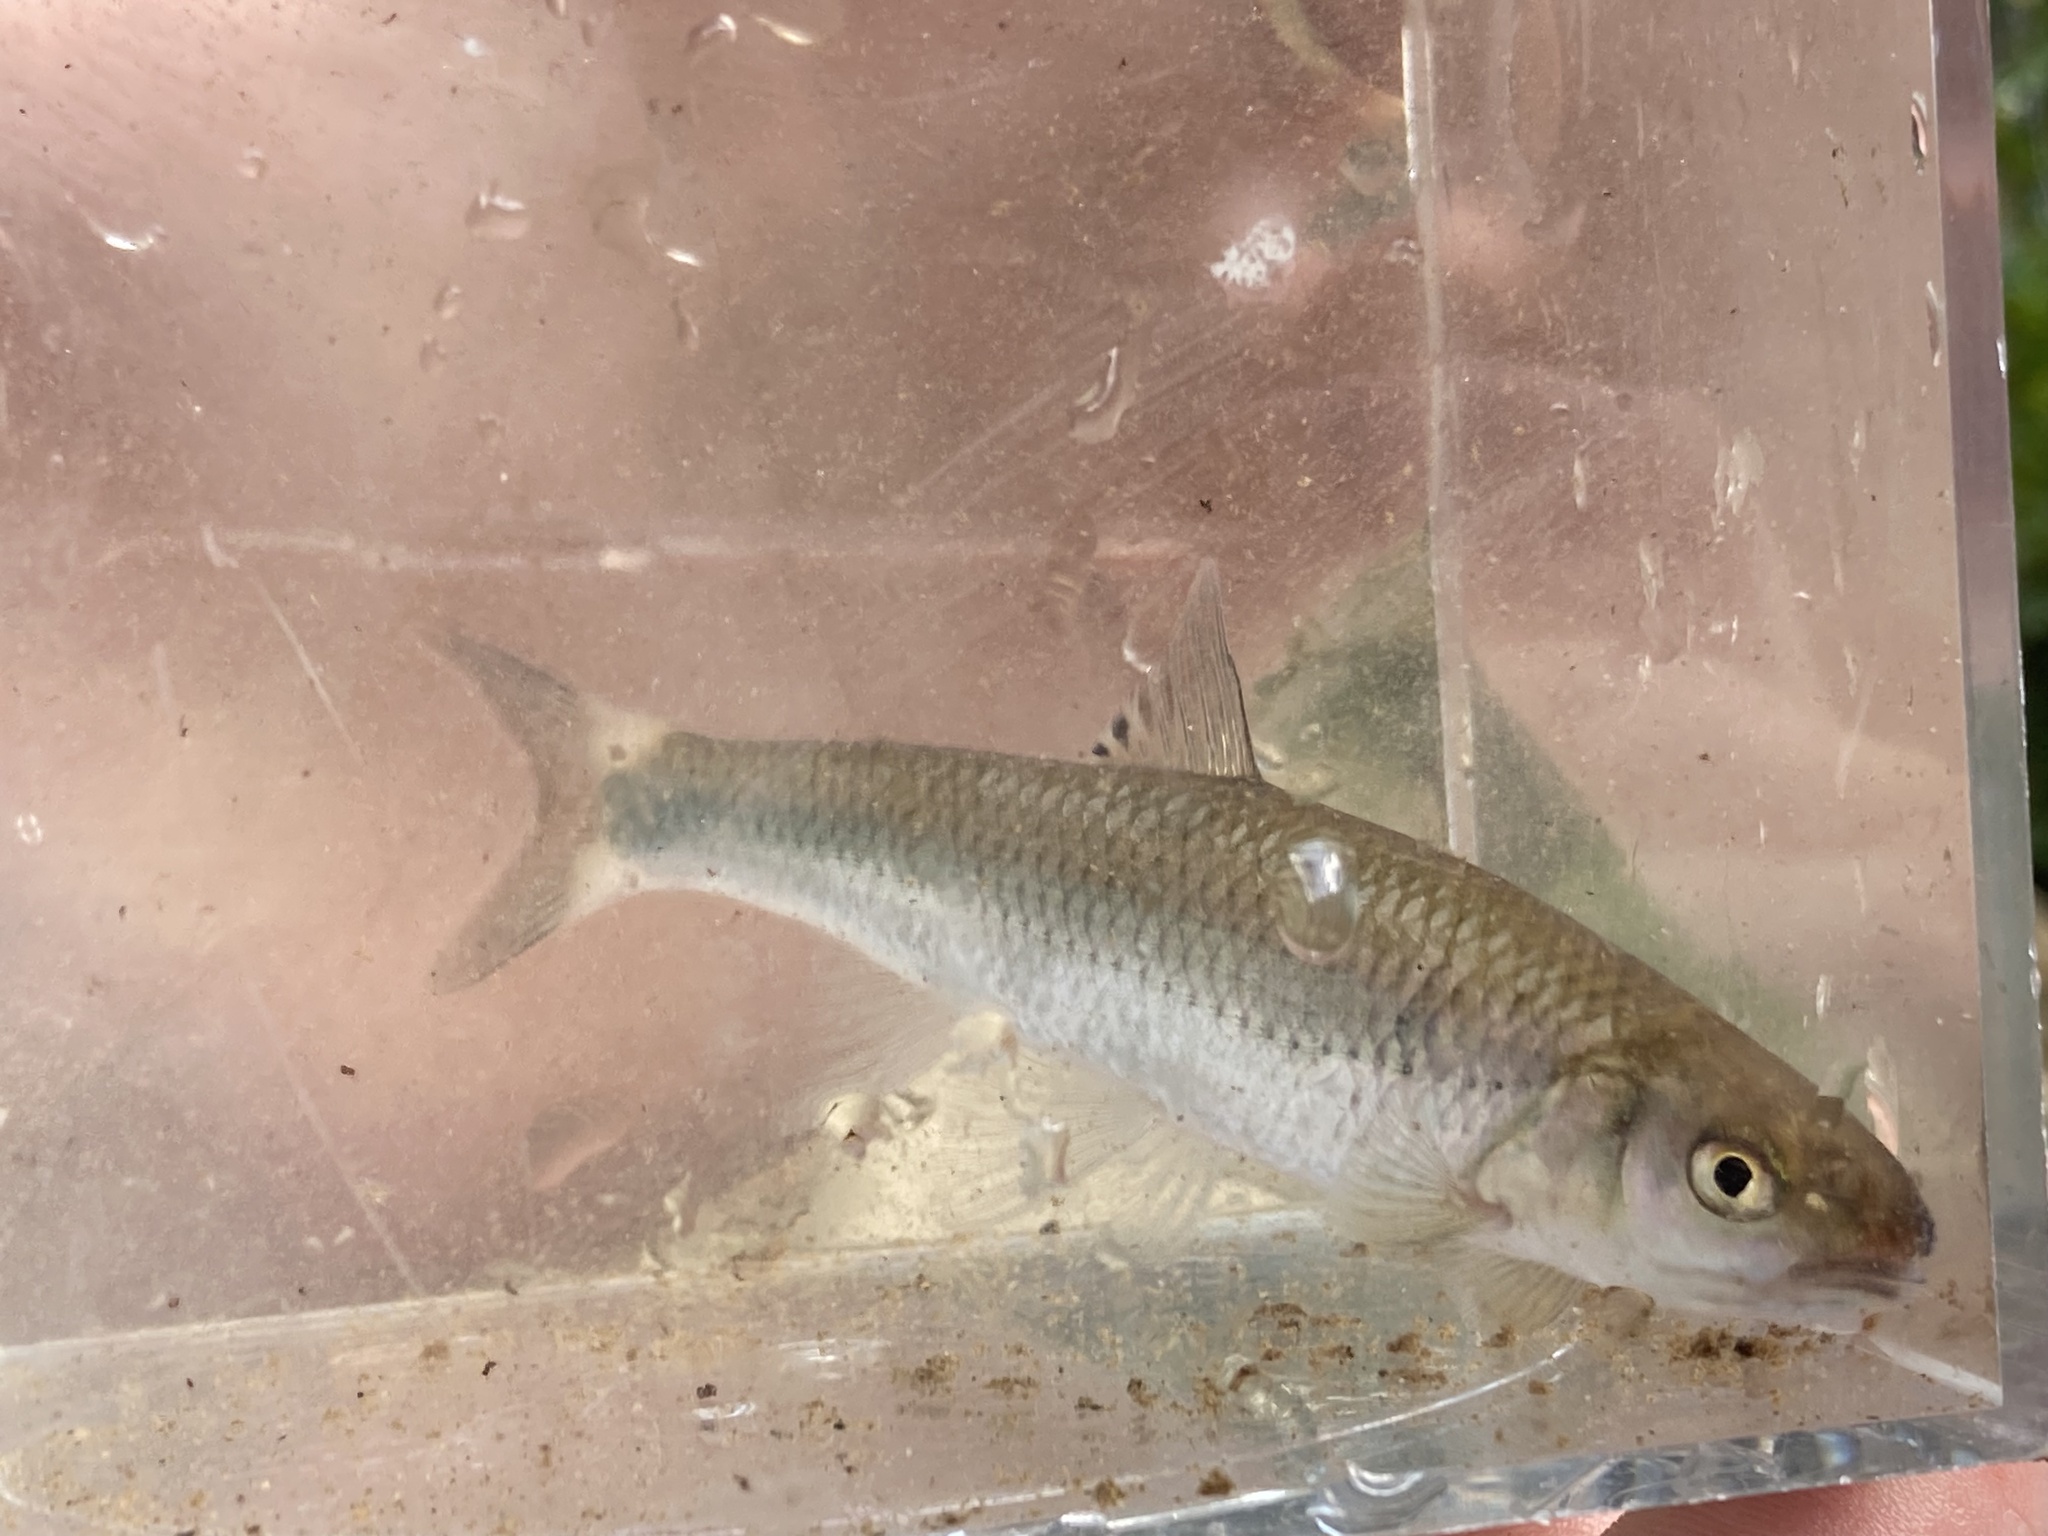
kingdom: Animalia
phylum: Chordata
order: Cypriniformes
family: Cyprinidae
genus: Cyprinella
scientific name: Cyprinella galactura
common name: Whitetail shiner
